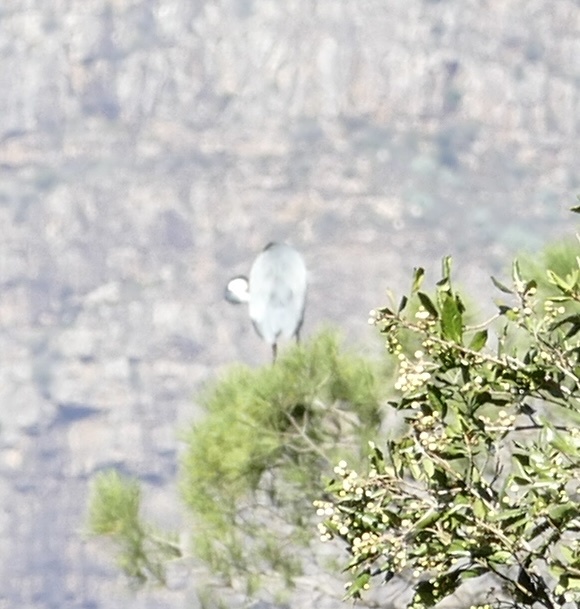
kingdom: Animalia
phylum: Chordata
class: Aves
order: Pelecaniformes
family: Ardeidae
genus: Ardea
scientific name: Ardea melanocephala
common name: Black-headed heron
